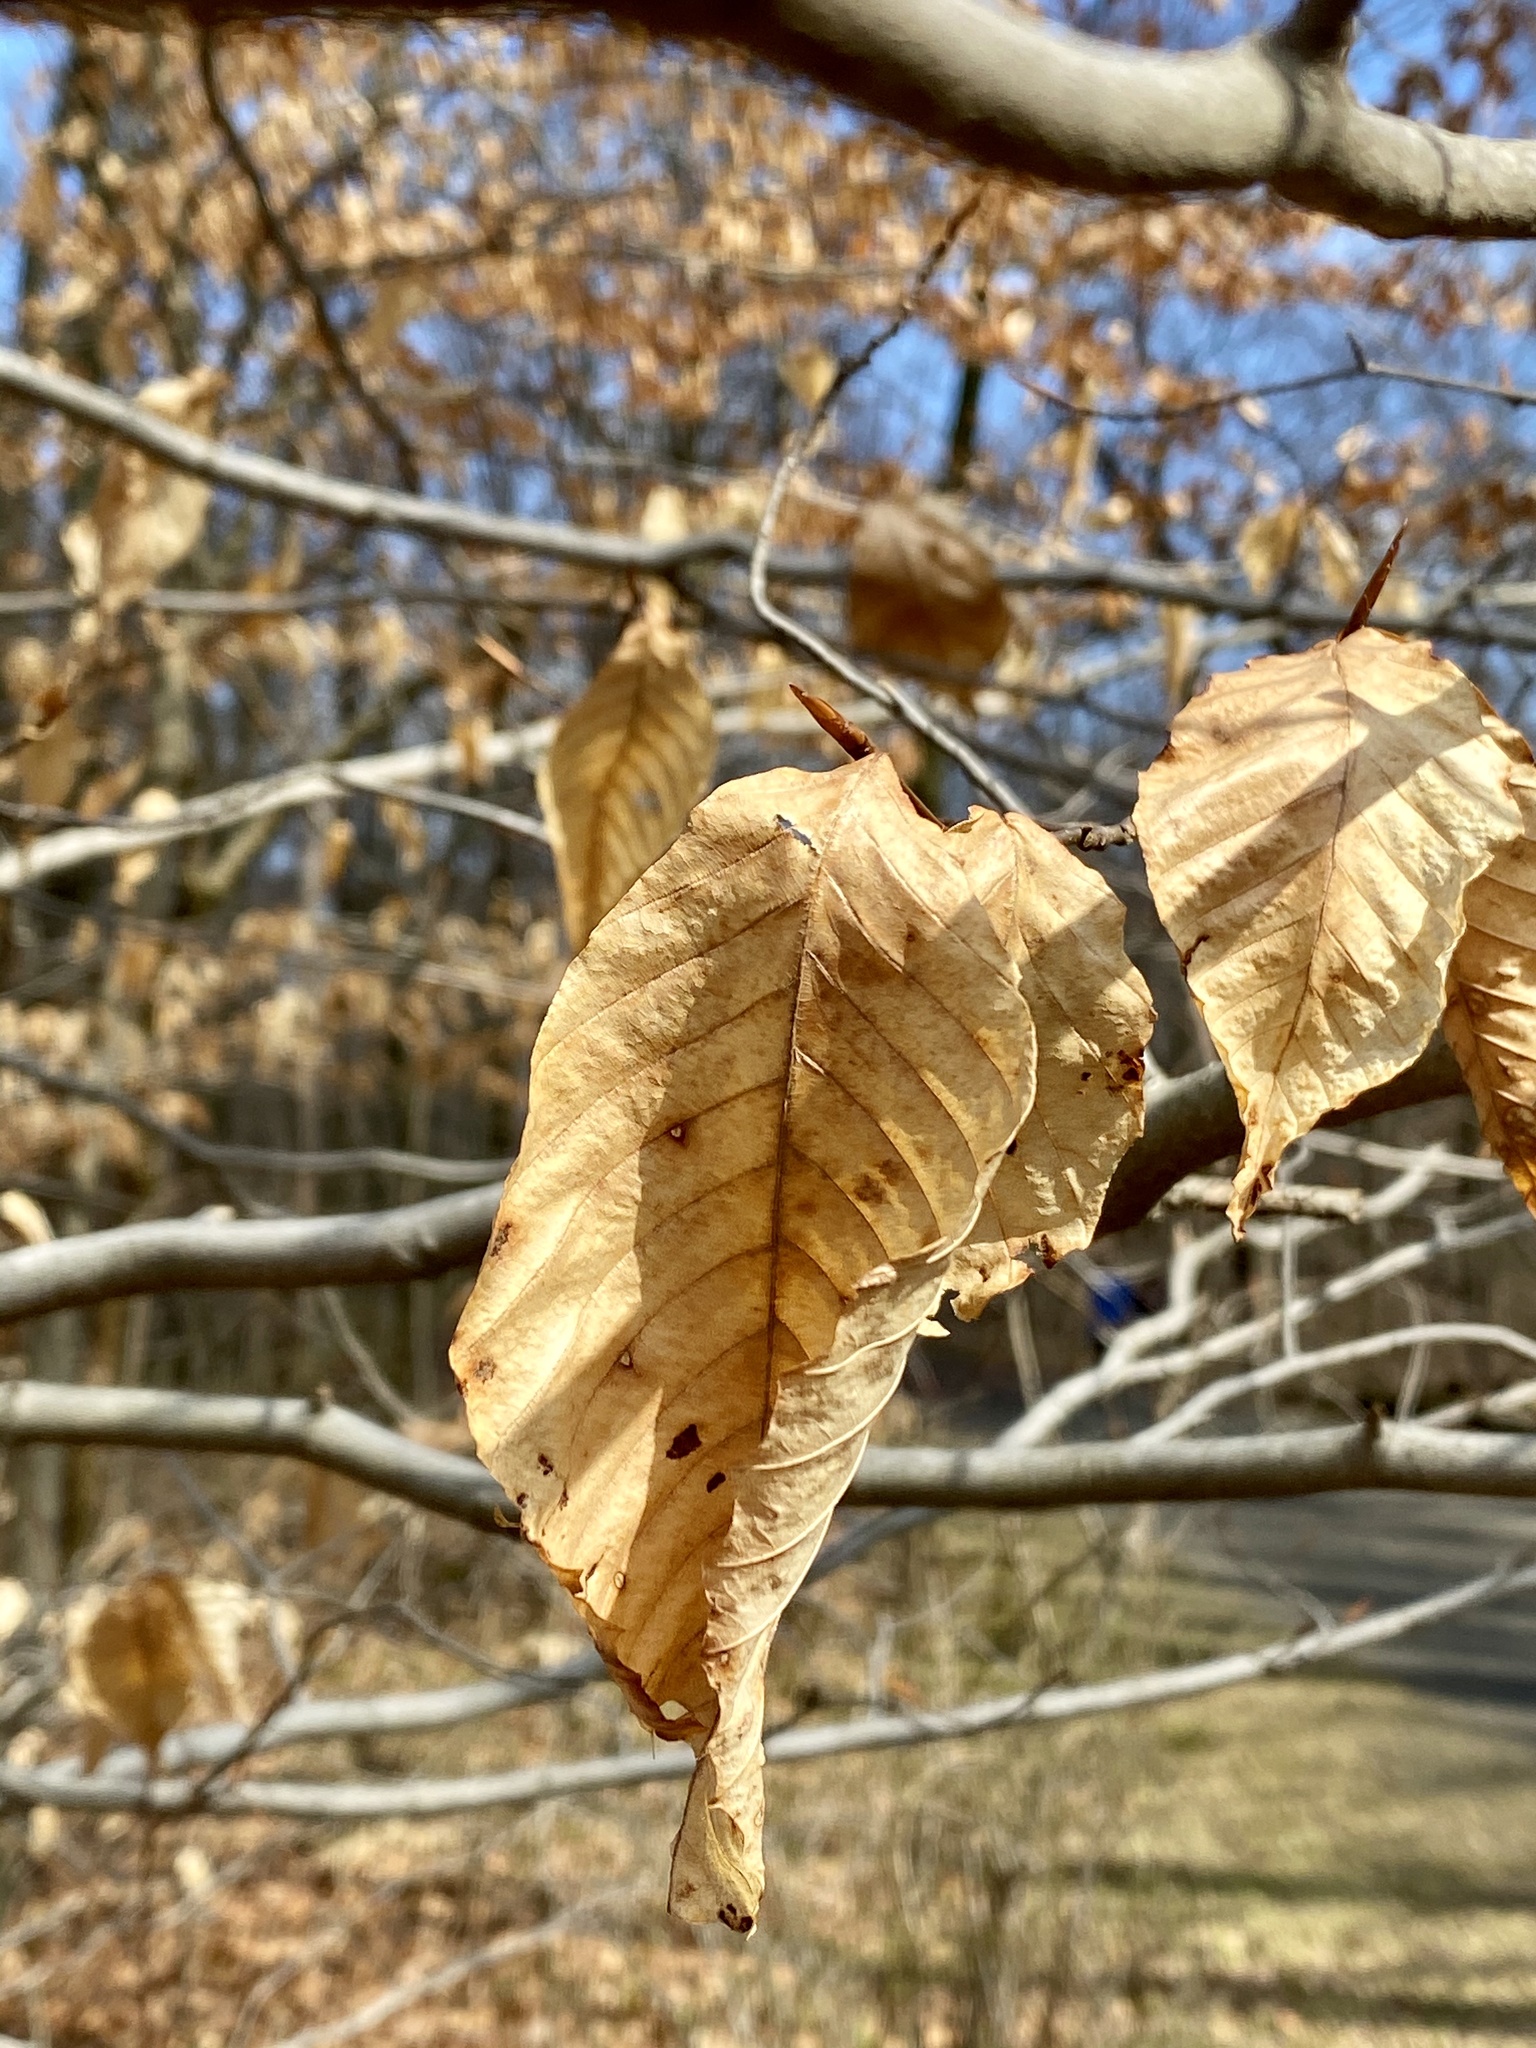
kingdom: Plantae
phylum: Tracheophyta
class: Magnoliopsida
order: Fagales
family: Fagaceae
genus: Fagus
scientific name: Fagus grandifolia
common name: American beech
